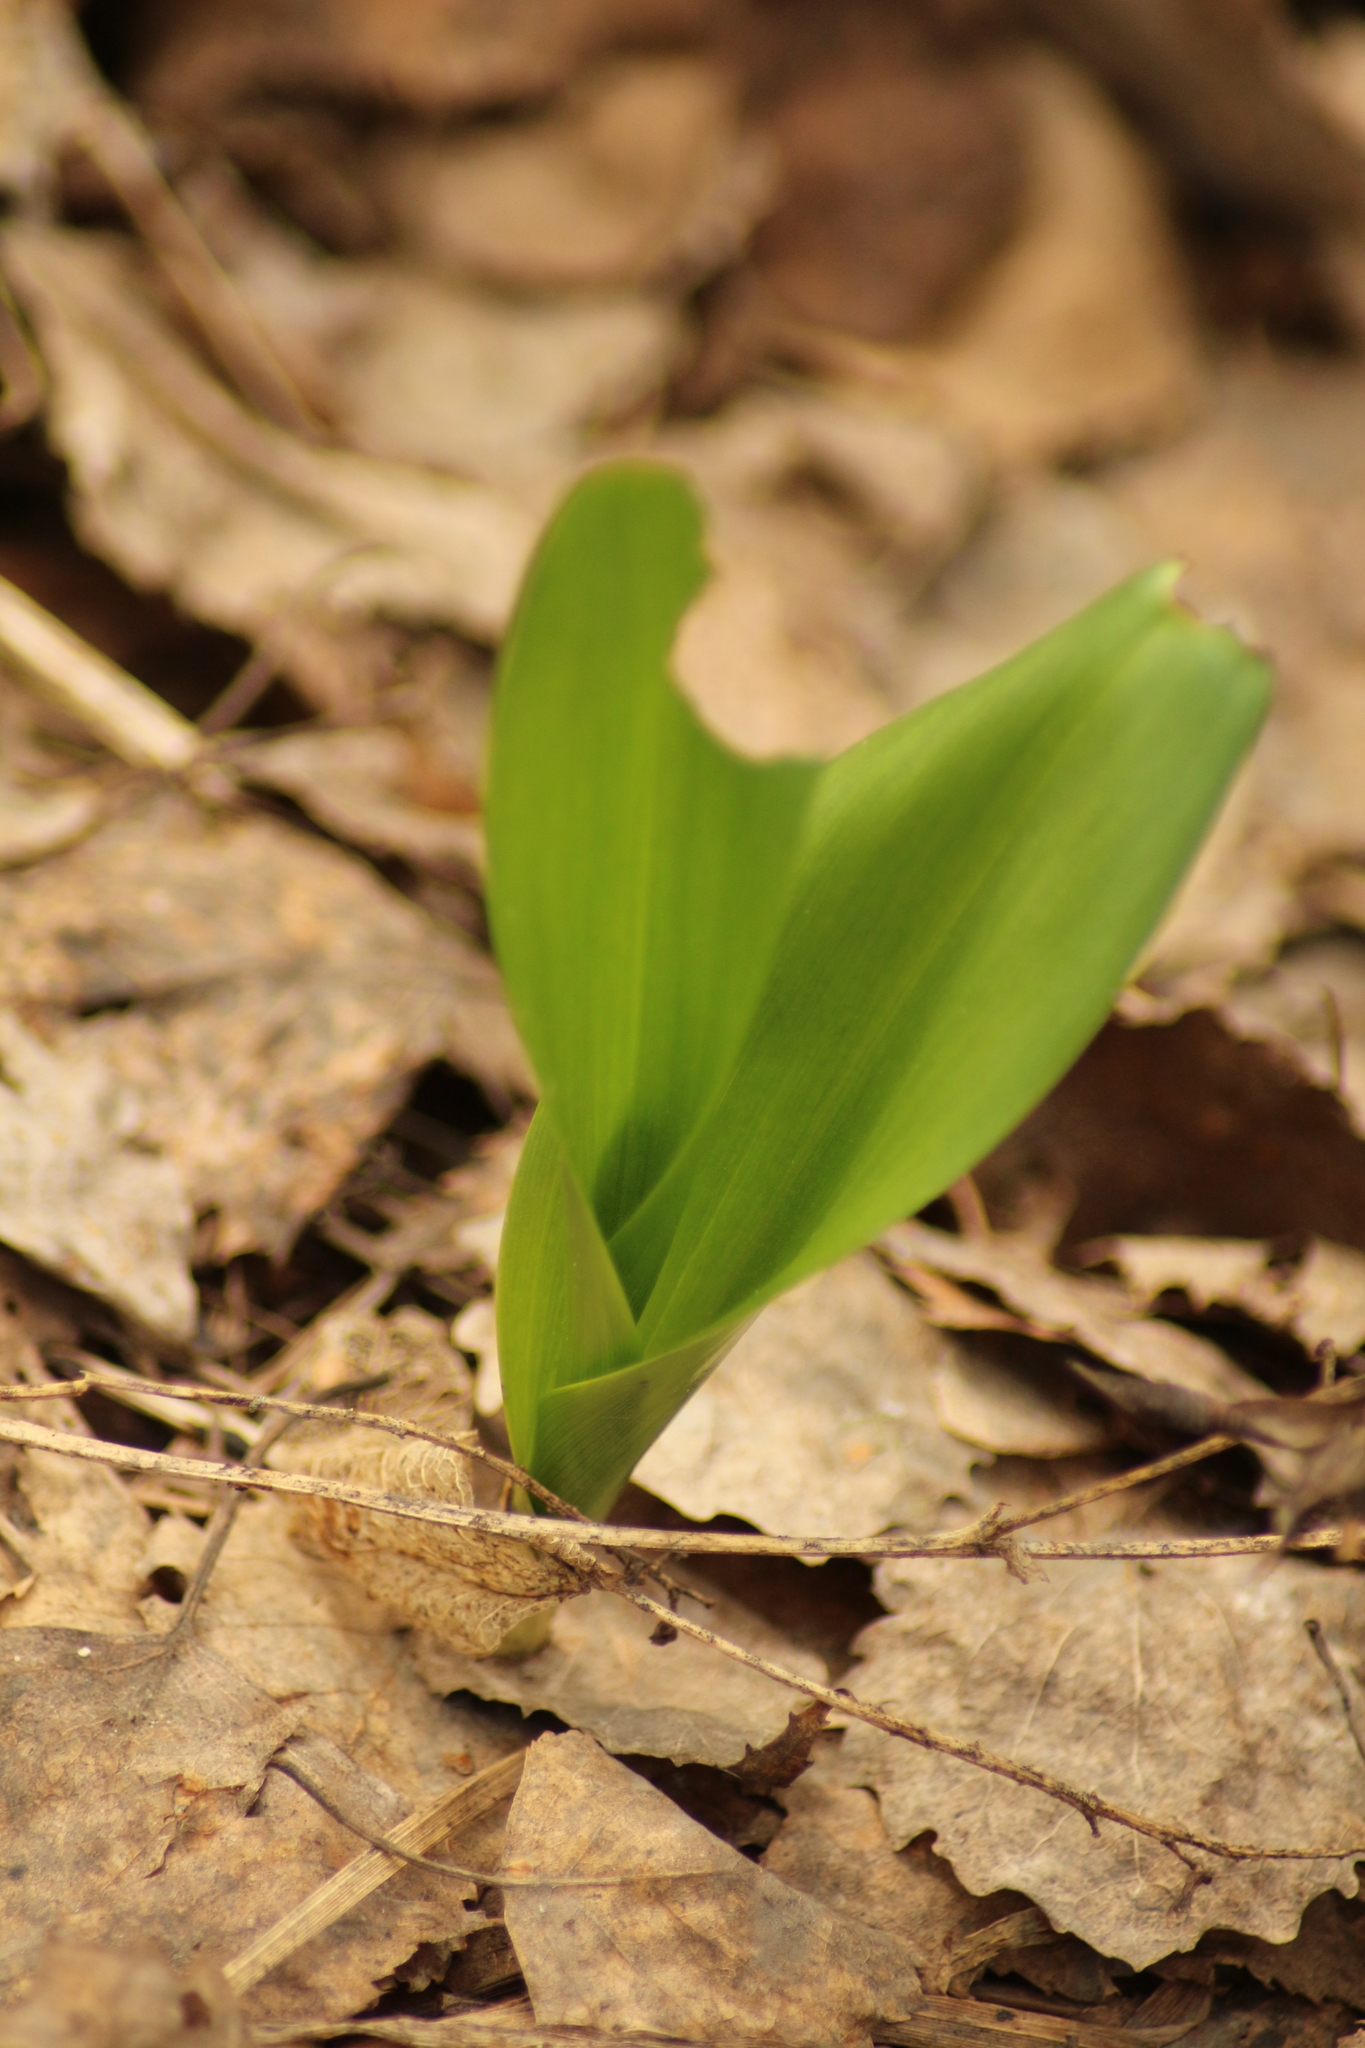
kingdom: Plantae
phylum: Tracheophyta
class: Liliopsida
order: Asparagales
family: Asparagaceae
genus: Convallaria
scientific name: Convallaria majalis
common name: Lily-of-the-valley
